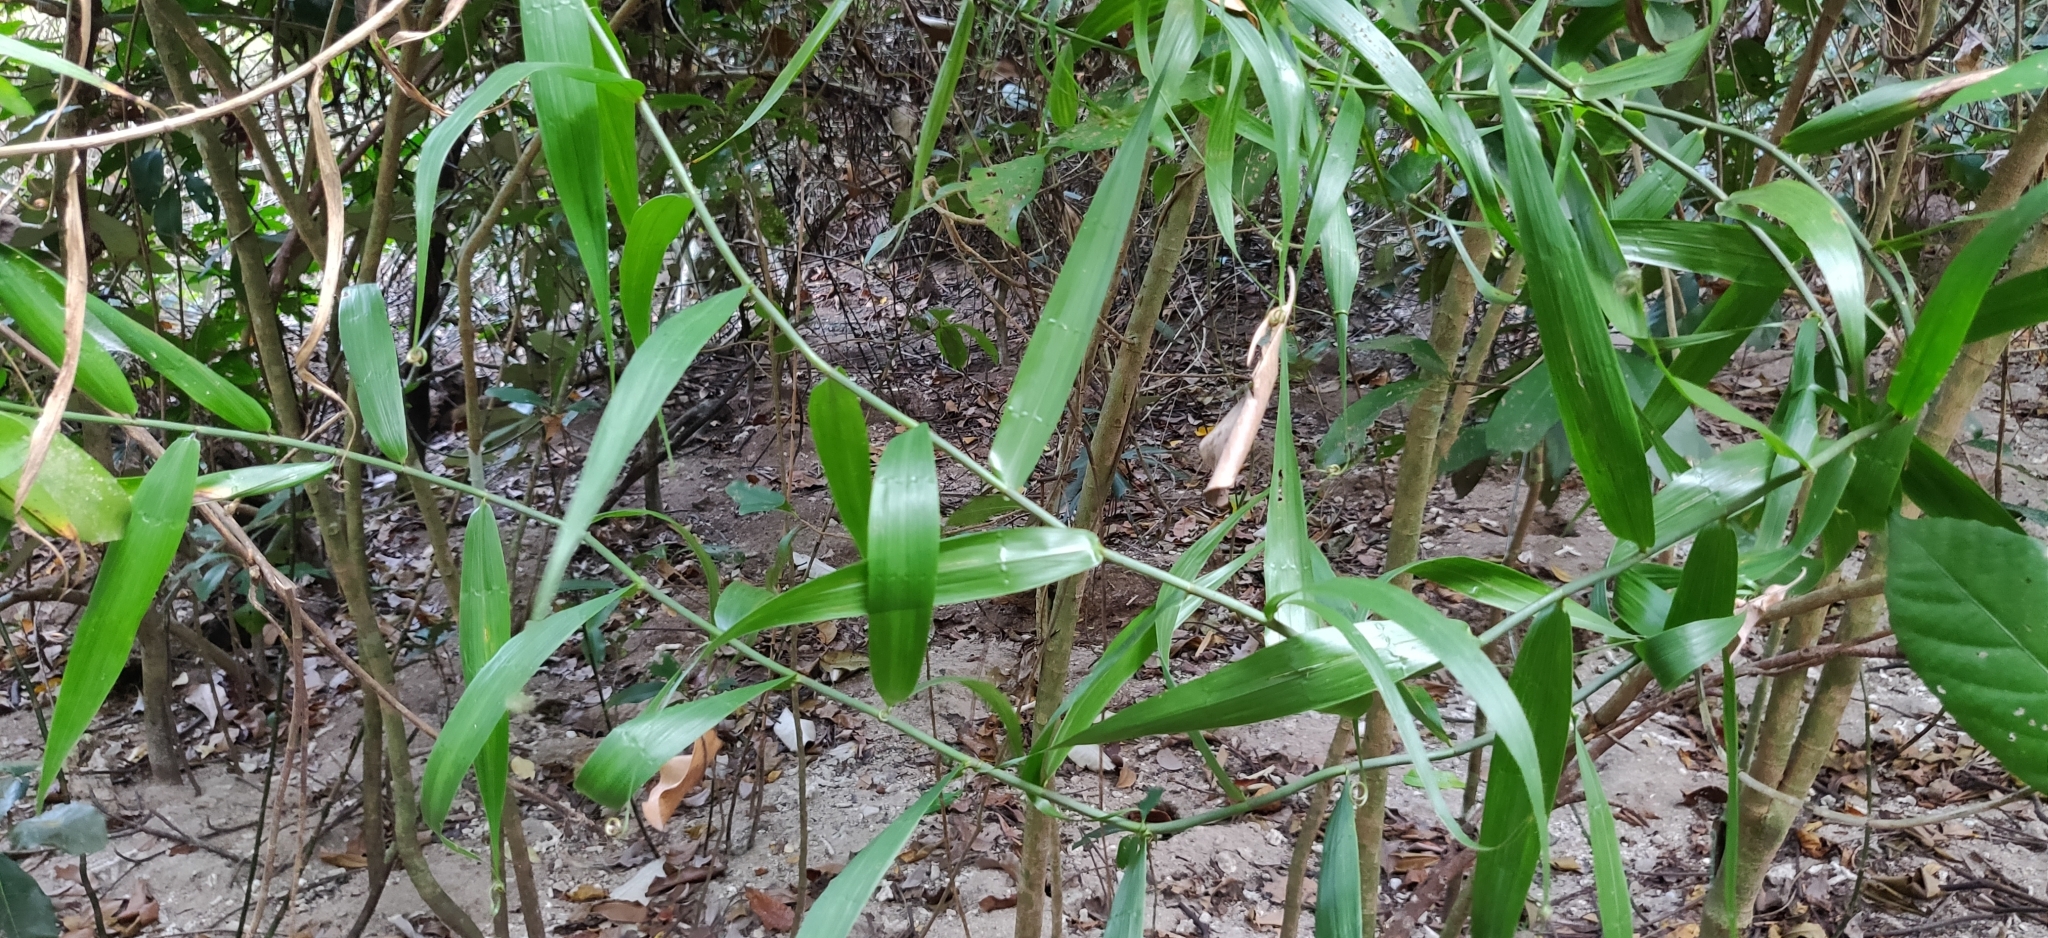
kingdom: Plantae
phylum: Tracheophyta
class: Liliopsida
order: Poales
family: Flagellariaceae
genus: Flagellaria
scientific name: Flagellaria indica
